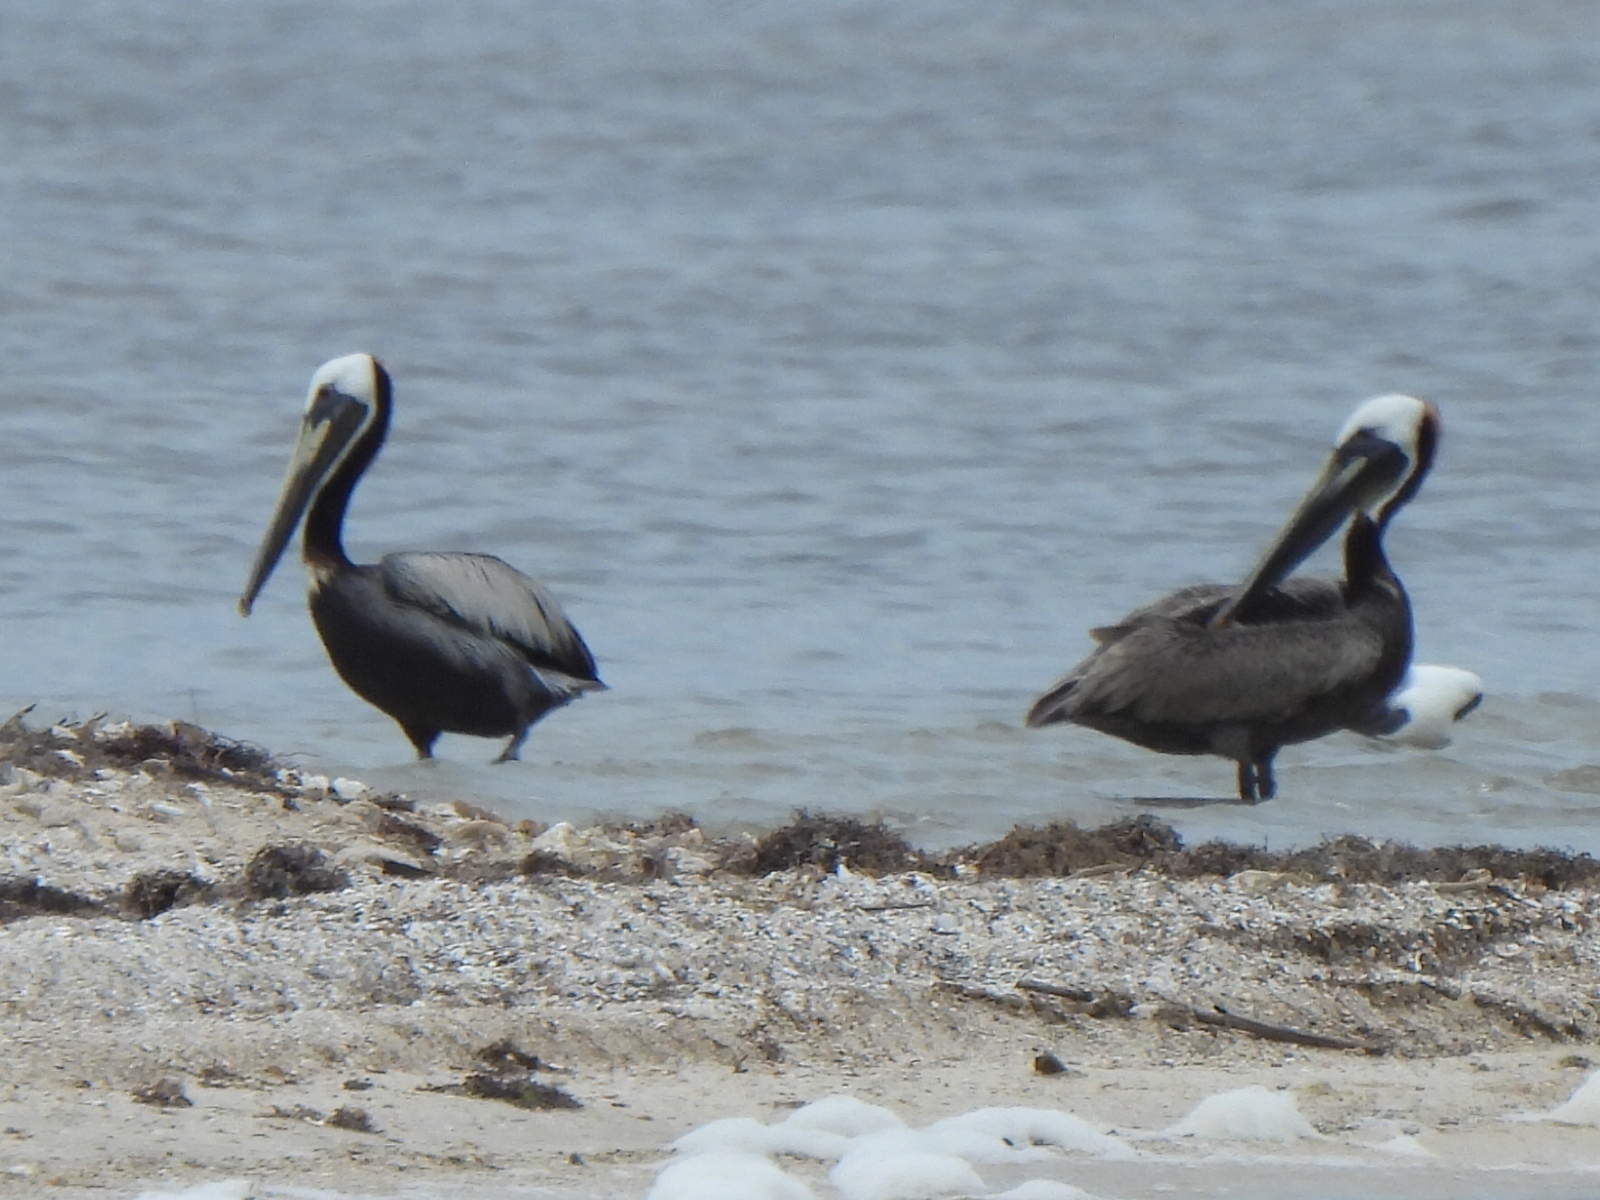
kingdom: Animalia
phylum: Chordata
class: Aves
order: Pelecaniformes
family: Pelecanidae
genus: Pelecanus
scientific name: Pelecanus occidentalis
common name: Brown pelican
